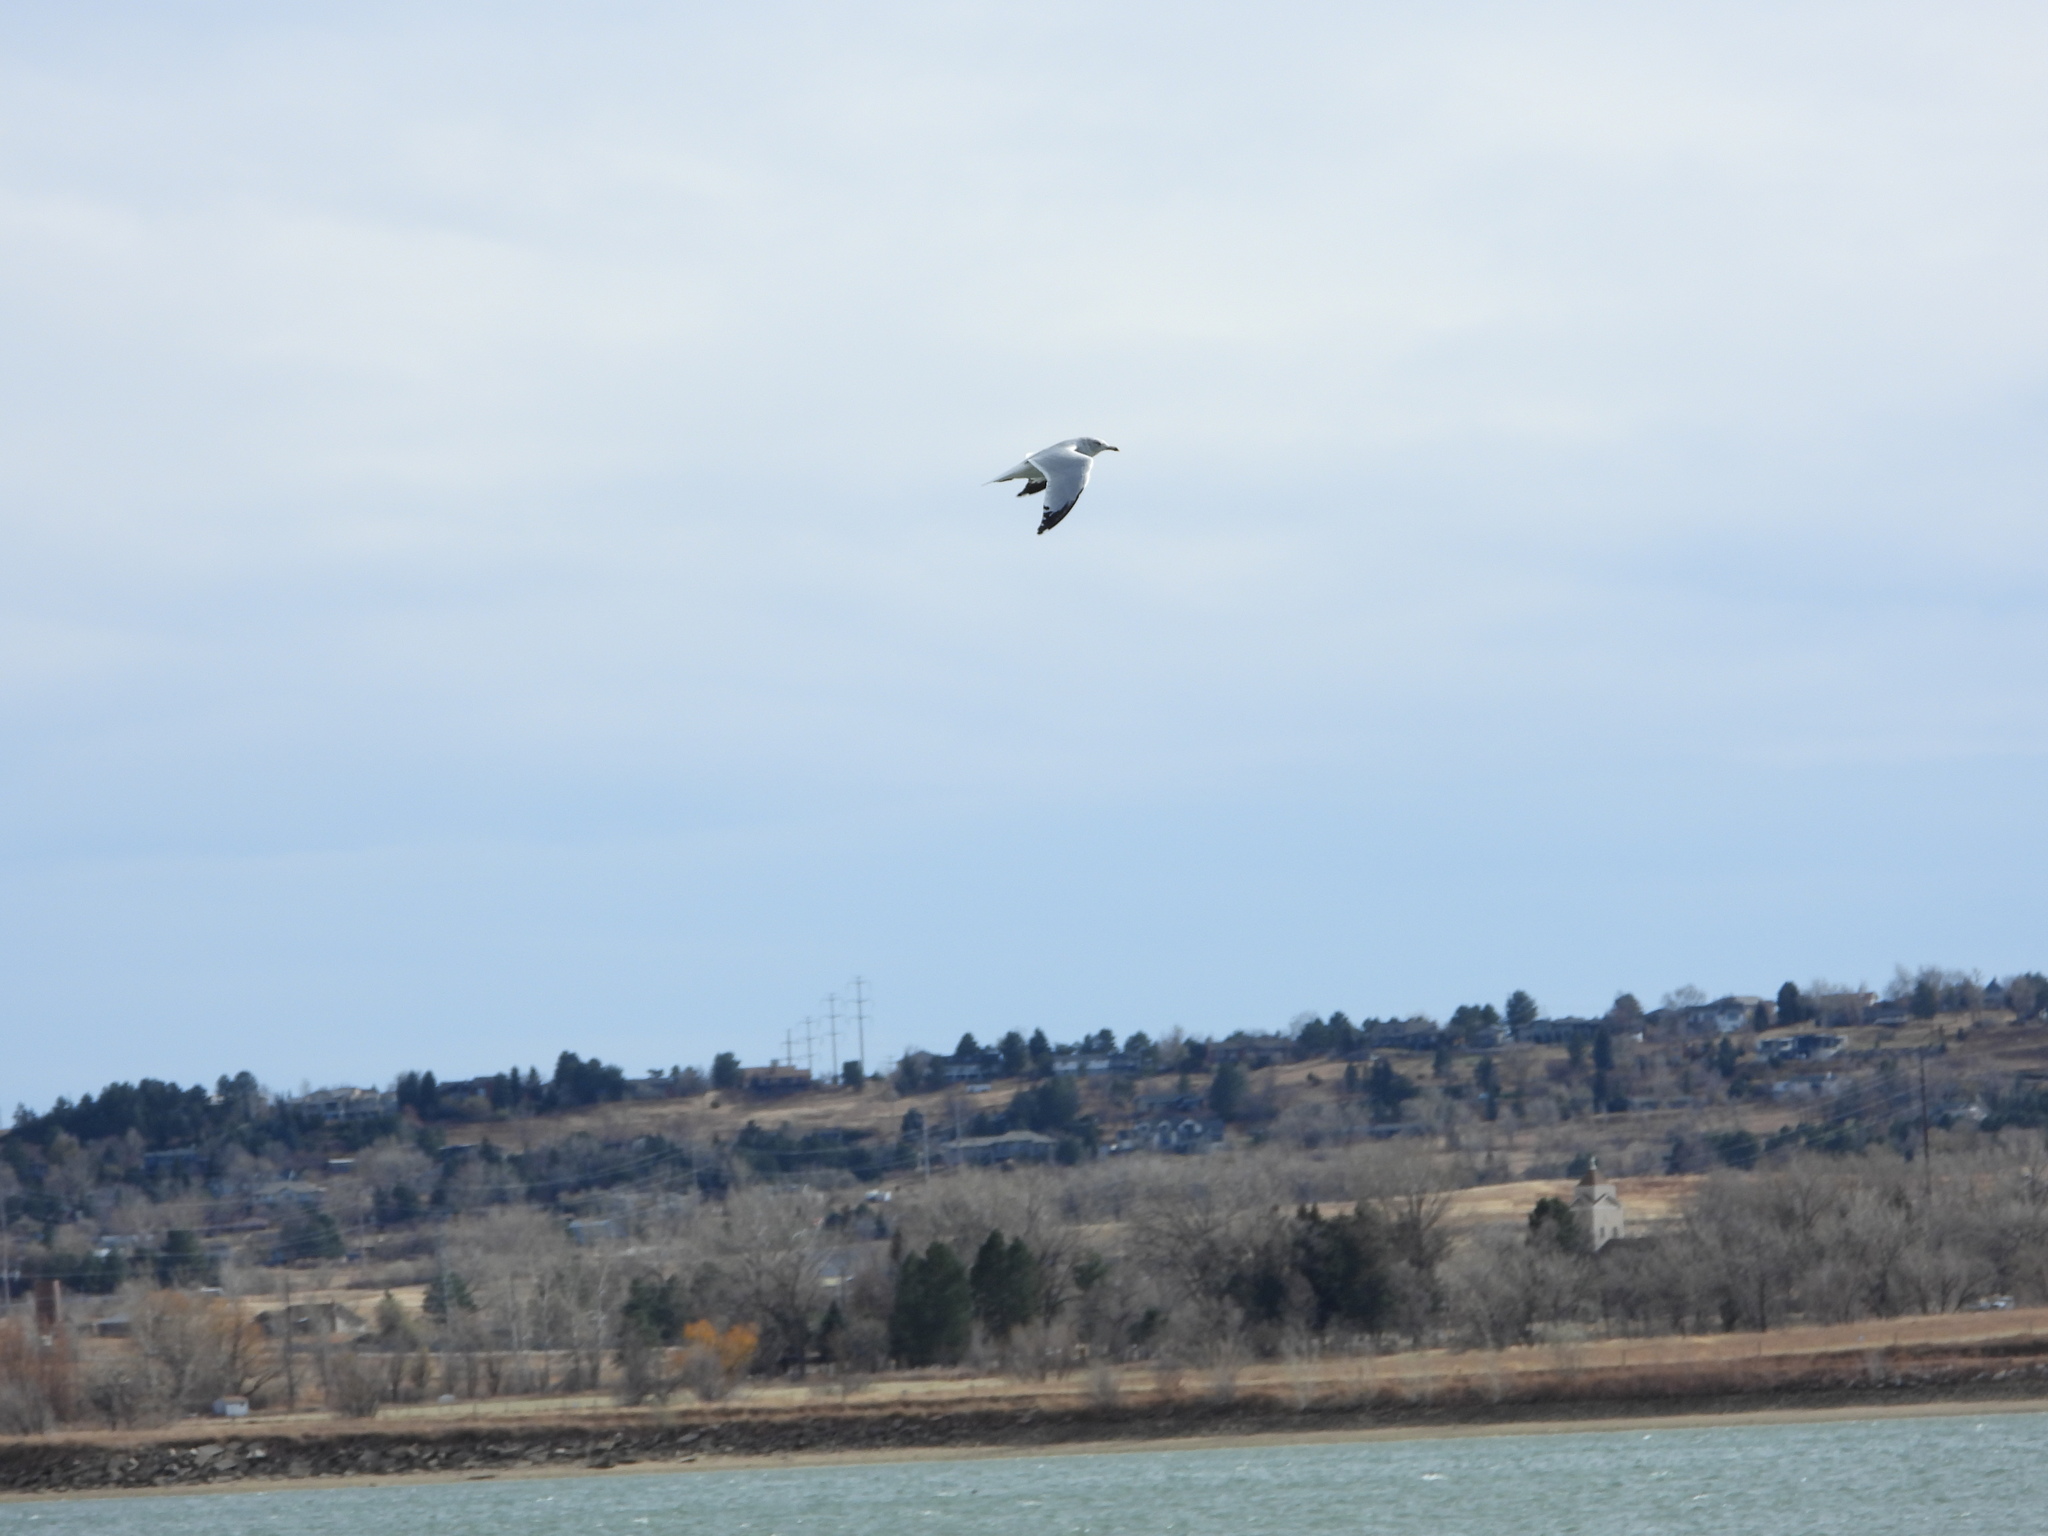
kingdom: Animalia
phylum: Chordata
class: Aves
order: Charadriiformes
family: Laridae
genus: Larus
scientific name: Larus delawarensis
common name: Ring-billed gull
